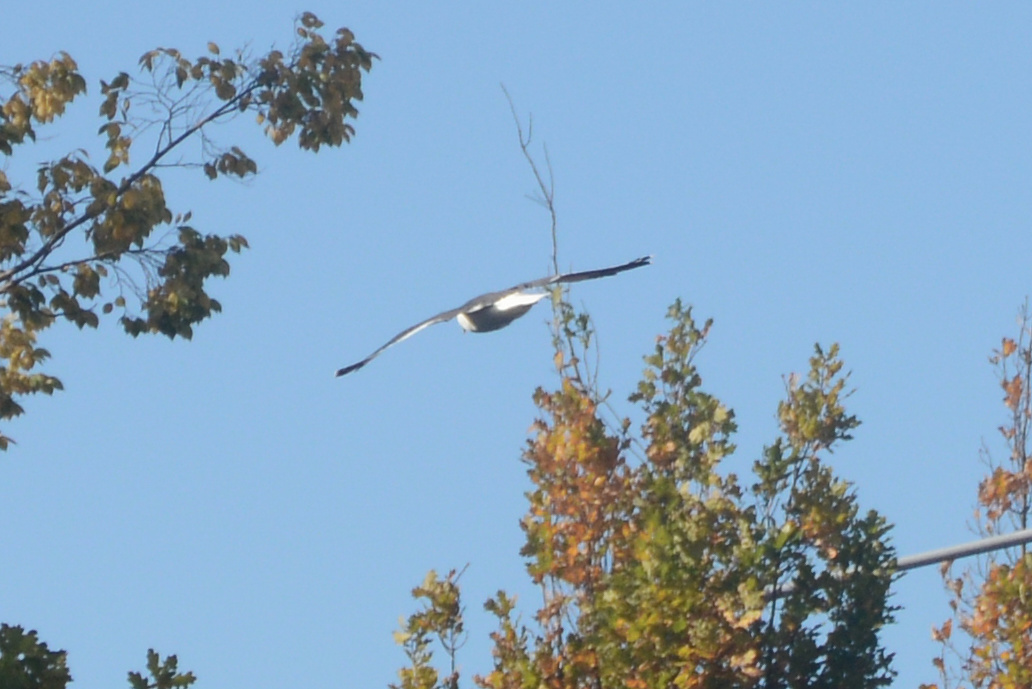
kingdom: Animalia
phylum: Chordata
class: Aves
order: Charadriiformes
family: Laridae
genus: Larus
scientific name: Larus dominicanus
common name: Kelp gull
